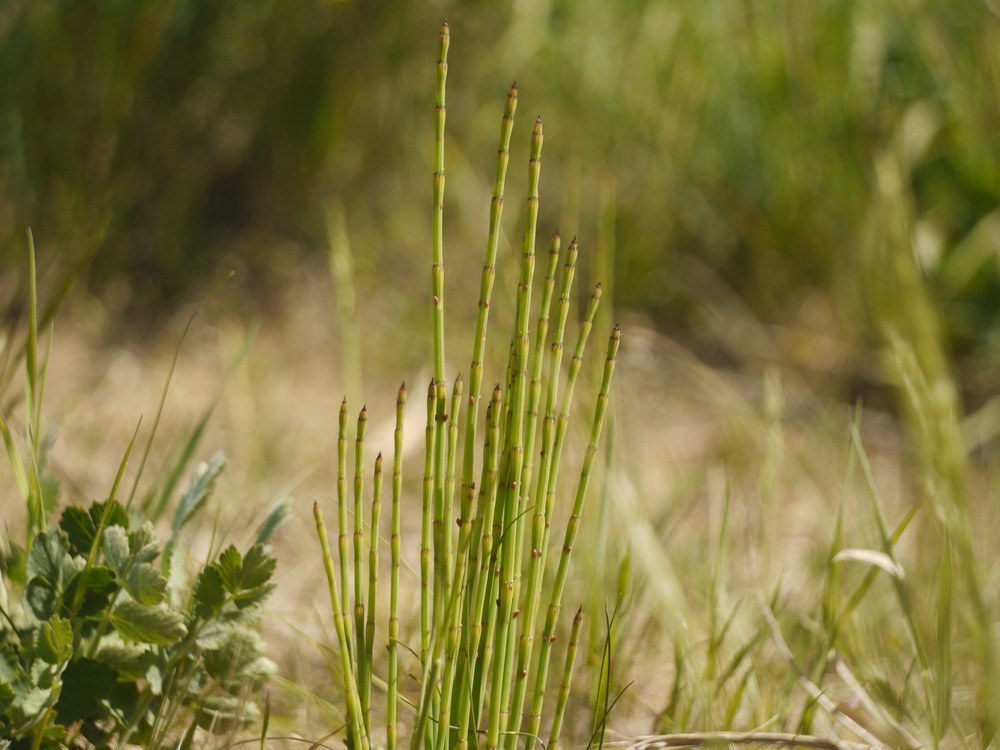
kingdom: Plantae
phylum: Tracheophyta
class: Polypodiopsida
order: Equisetales
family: Equisetaceae
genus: Equisetum
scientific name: Equisetum ramosissimum
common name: Branched horsetail
